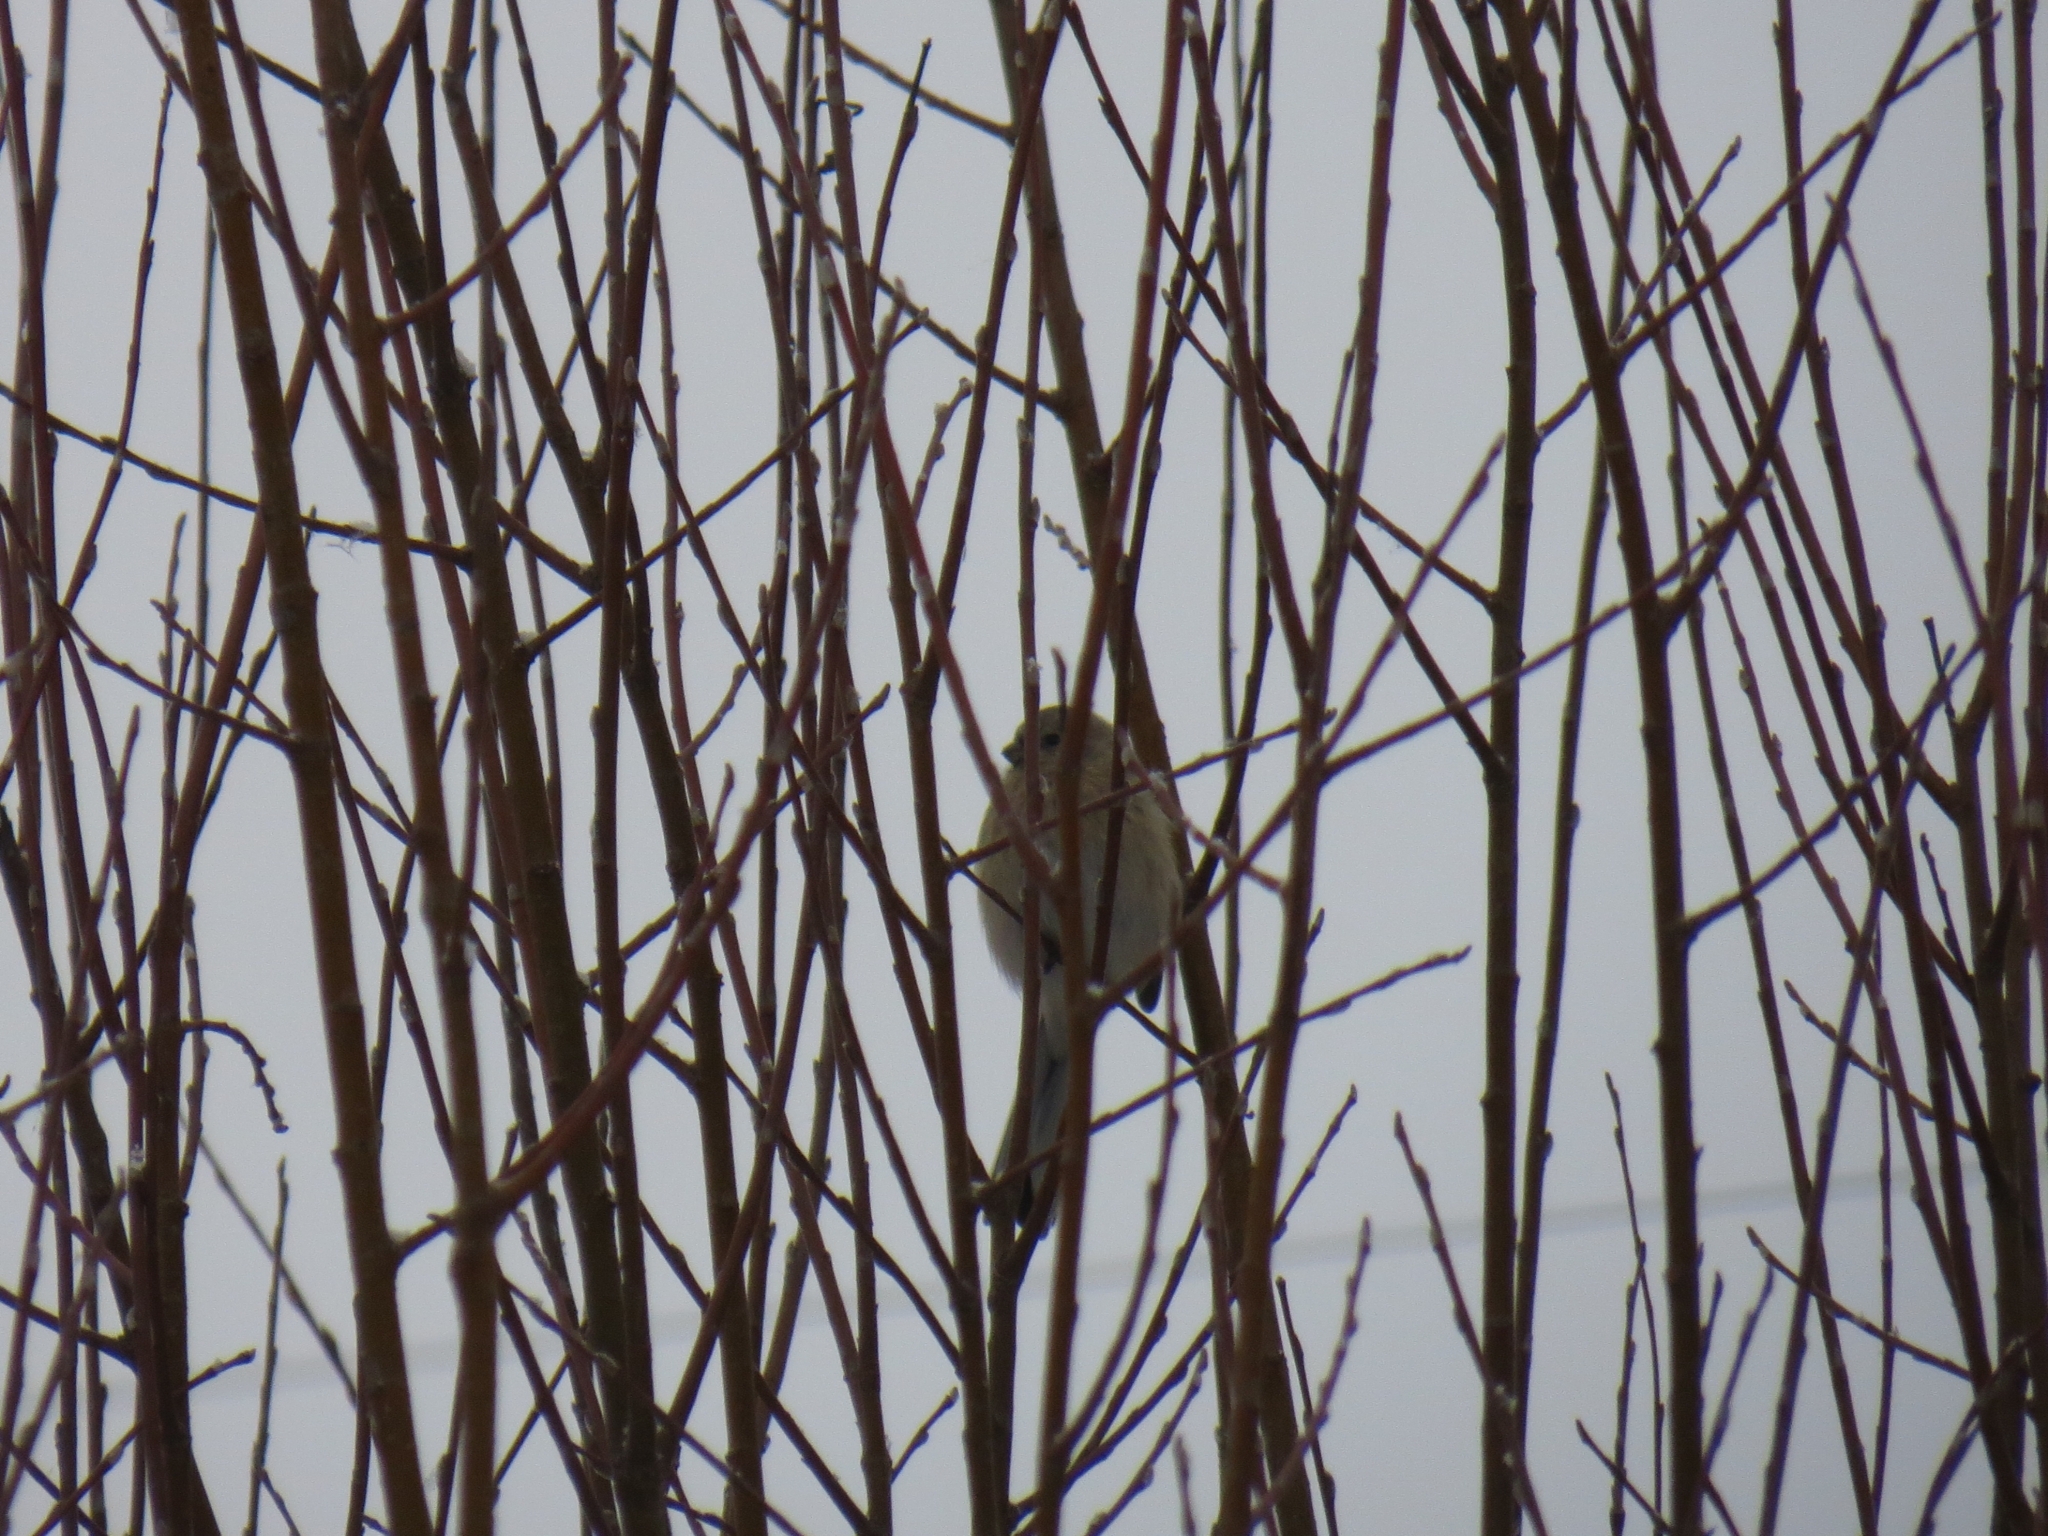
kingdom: Animalia
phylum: Chordata
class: Aves
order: Passeriformes
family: Fringillidae
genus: Carpodacus
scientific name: Carpodacus sibiricus
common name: Long-tailed rosefinch
